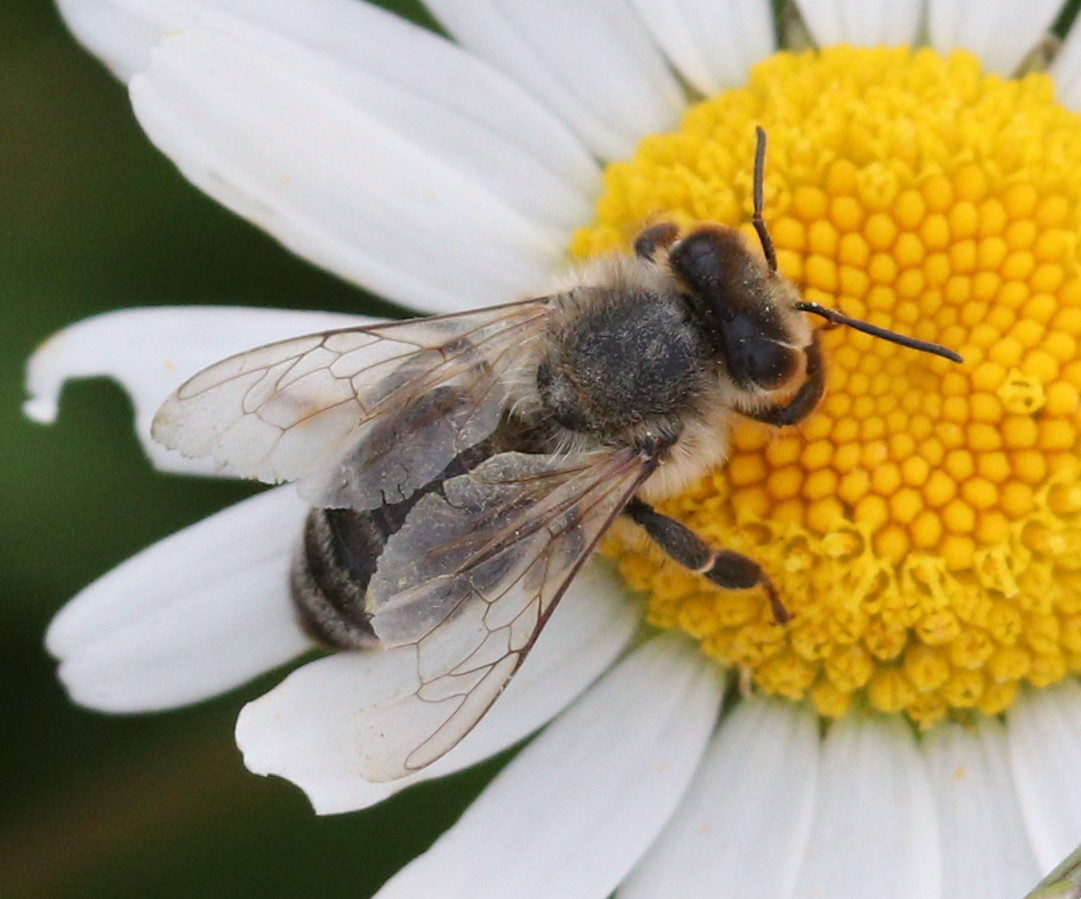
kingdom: Animalia
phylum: Arthropoda
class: Insecta
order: Hymenoptera
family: Apidae
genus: Apis
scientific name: Apis mellifera
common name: Honey bee
